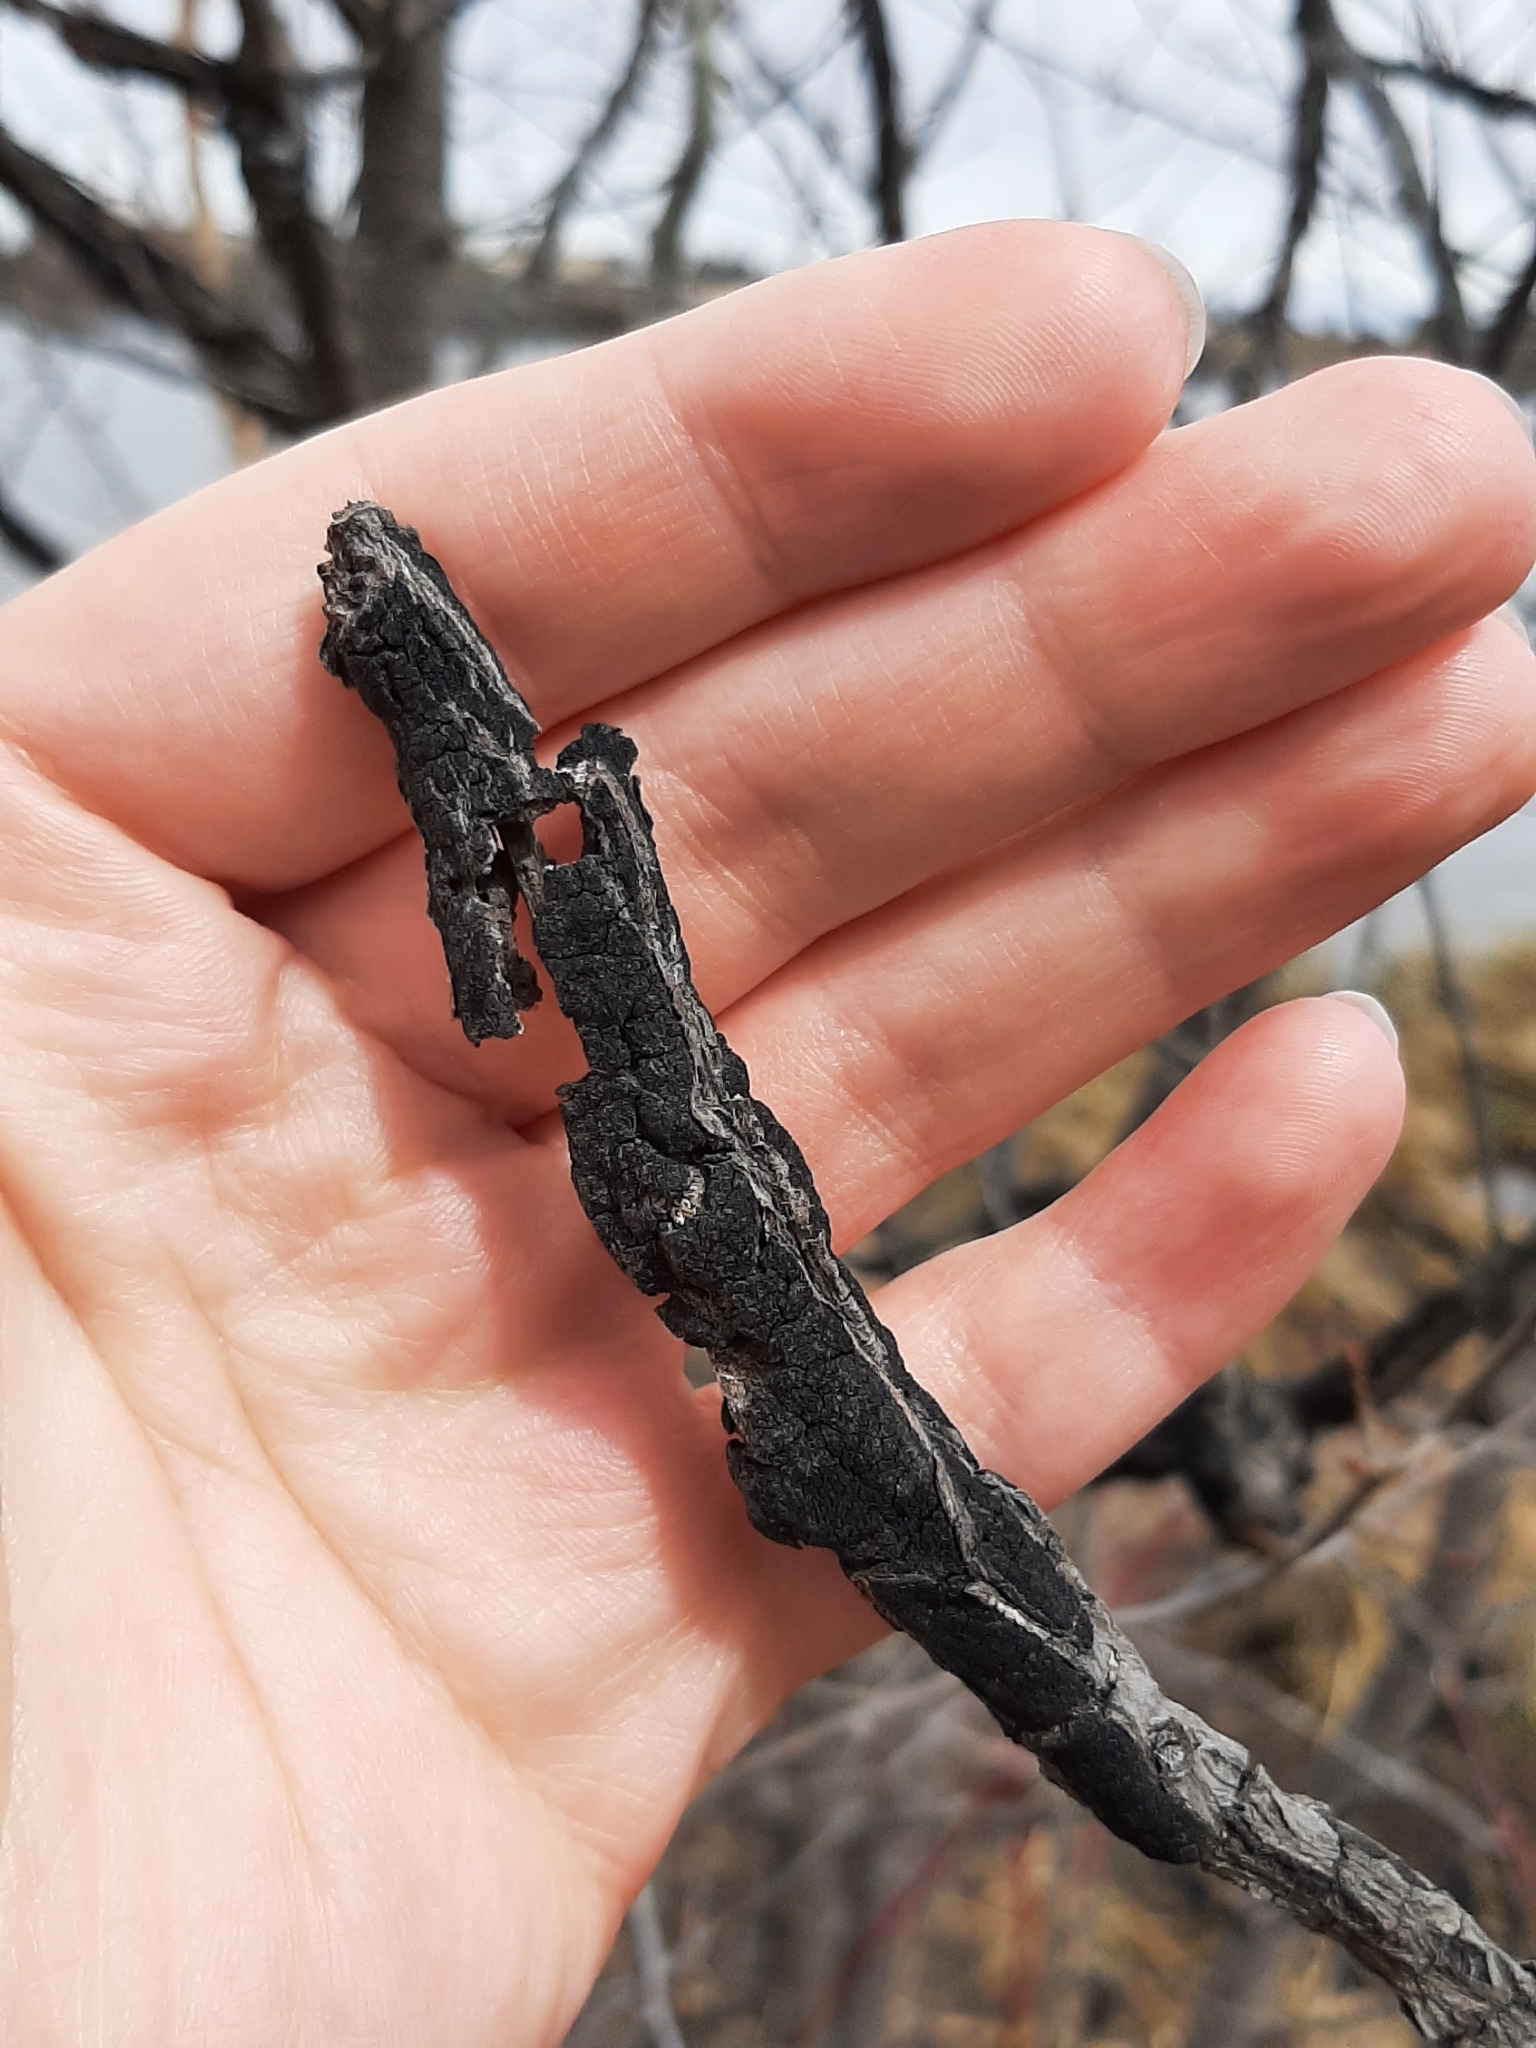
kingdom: Fungi
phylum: Ascomycota
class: Dothideomycetes
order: Venturiales
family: Venturiaceae
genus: Apiosporina
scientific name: Apiosporina morbosa
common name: Black knot
